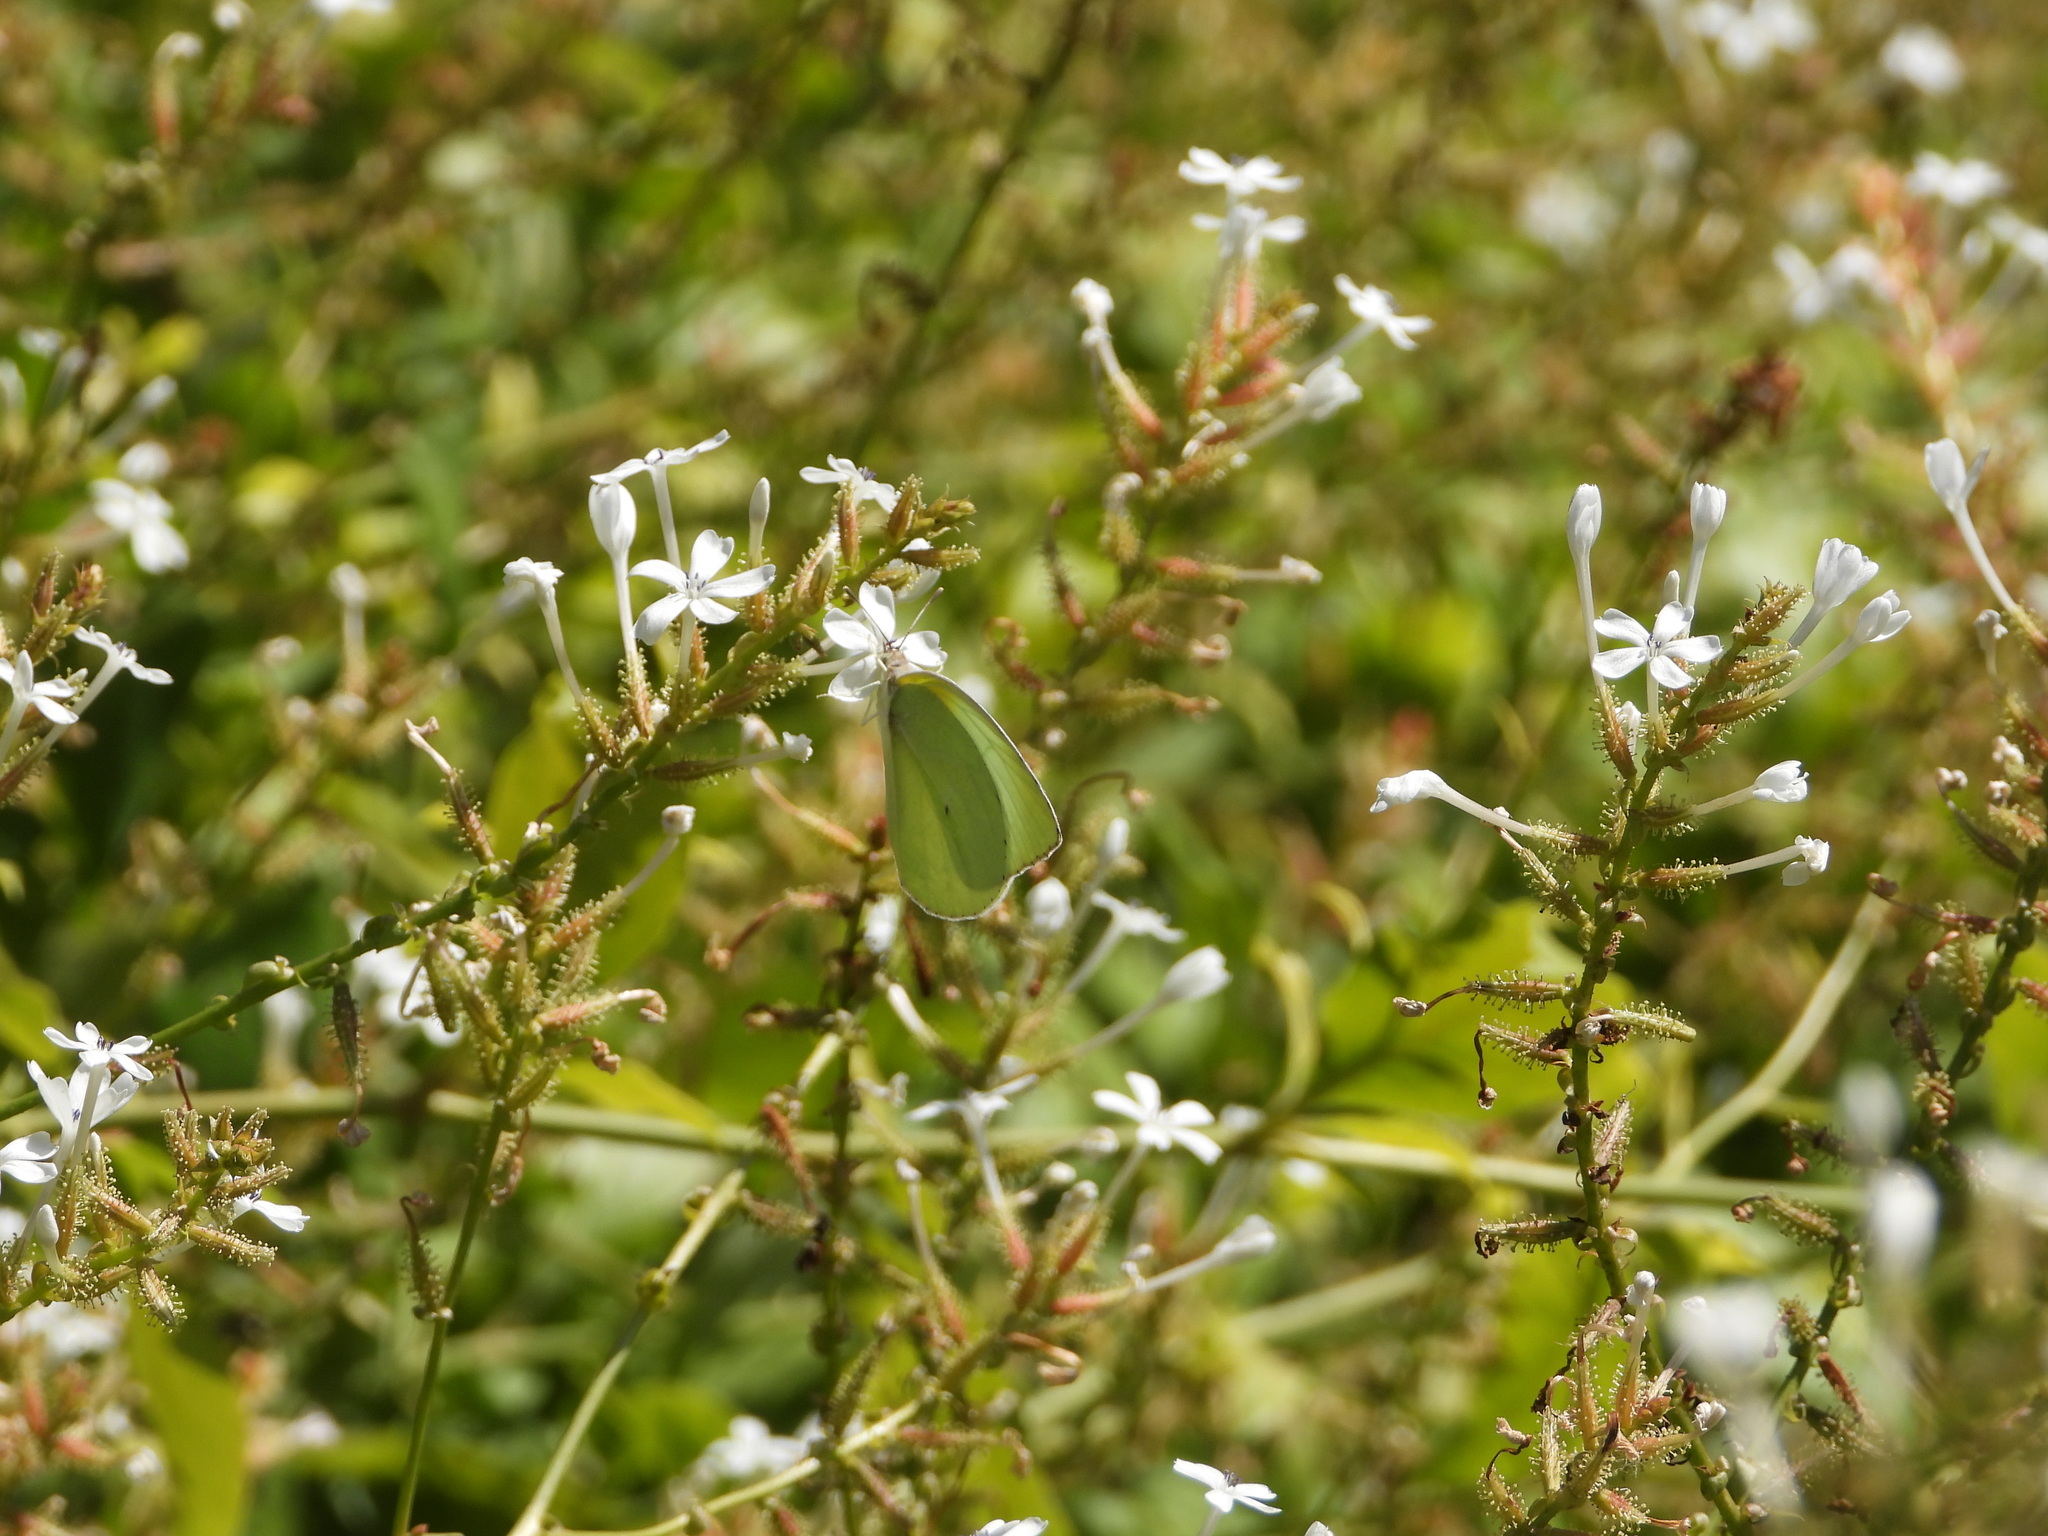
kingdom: Animalia
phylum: Arthropoda
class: Insecta
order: Lepidoptera
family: Pieridae
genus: Kricogonia
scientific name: Kricogonia lyside
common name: Guayacan sulphur,
